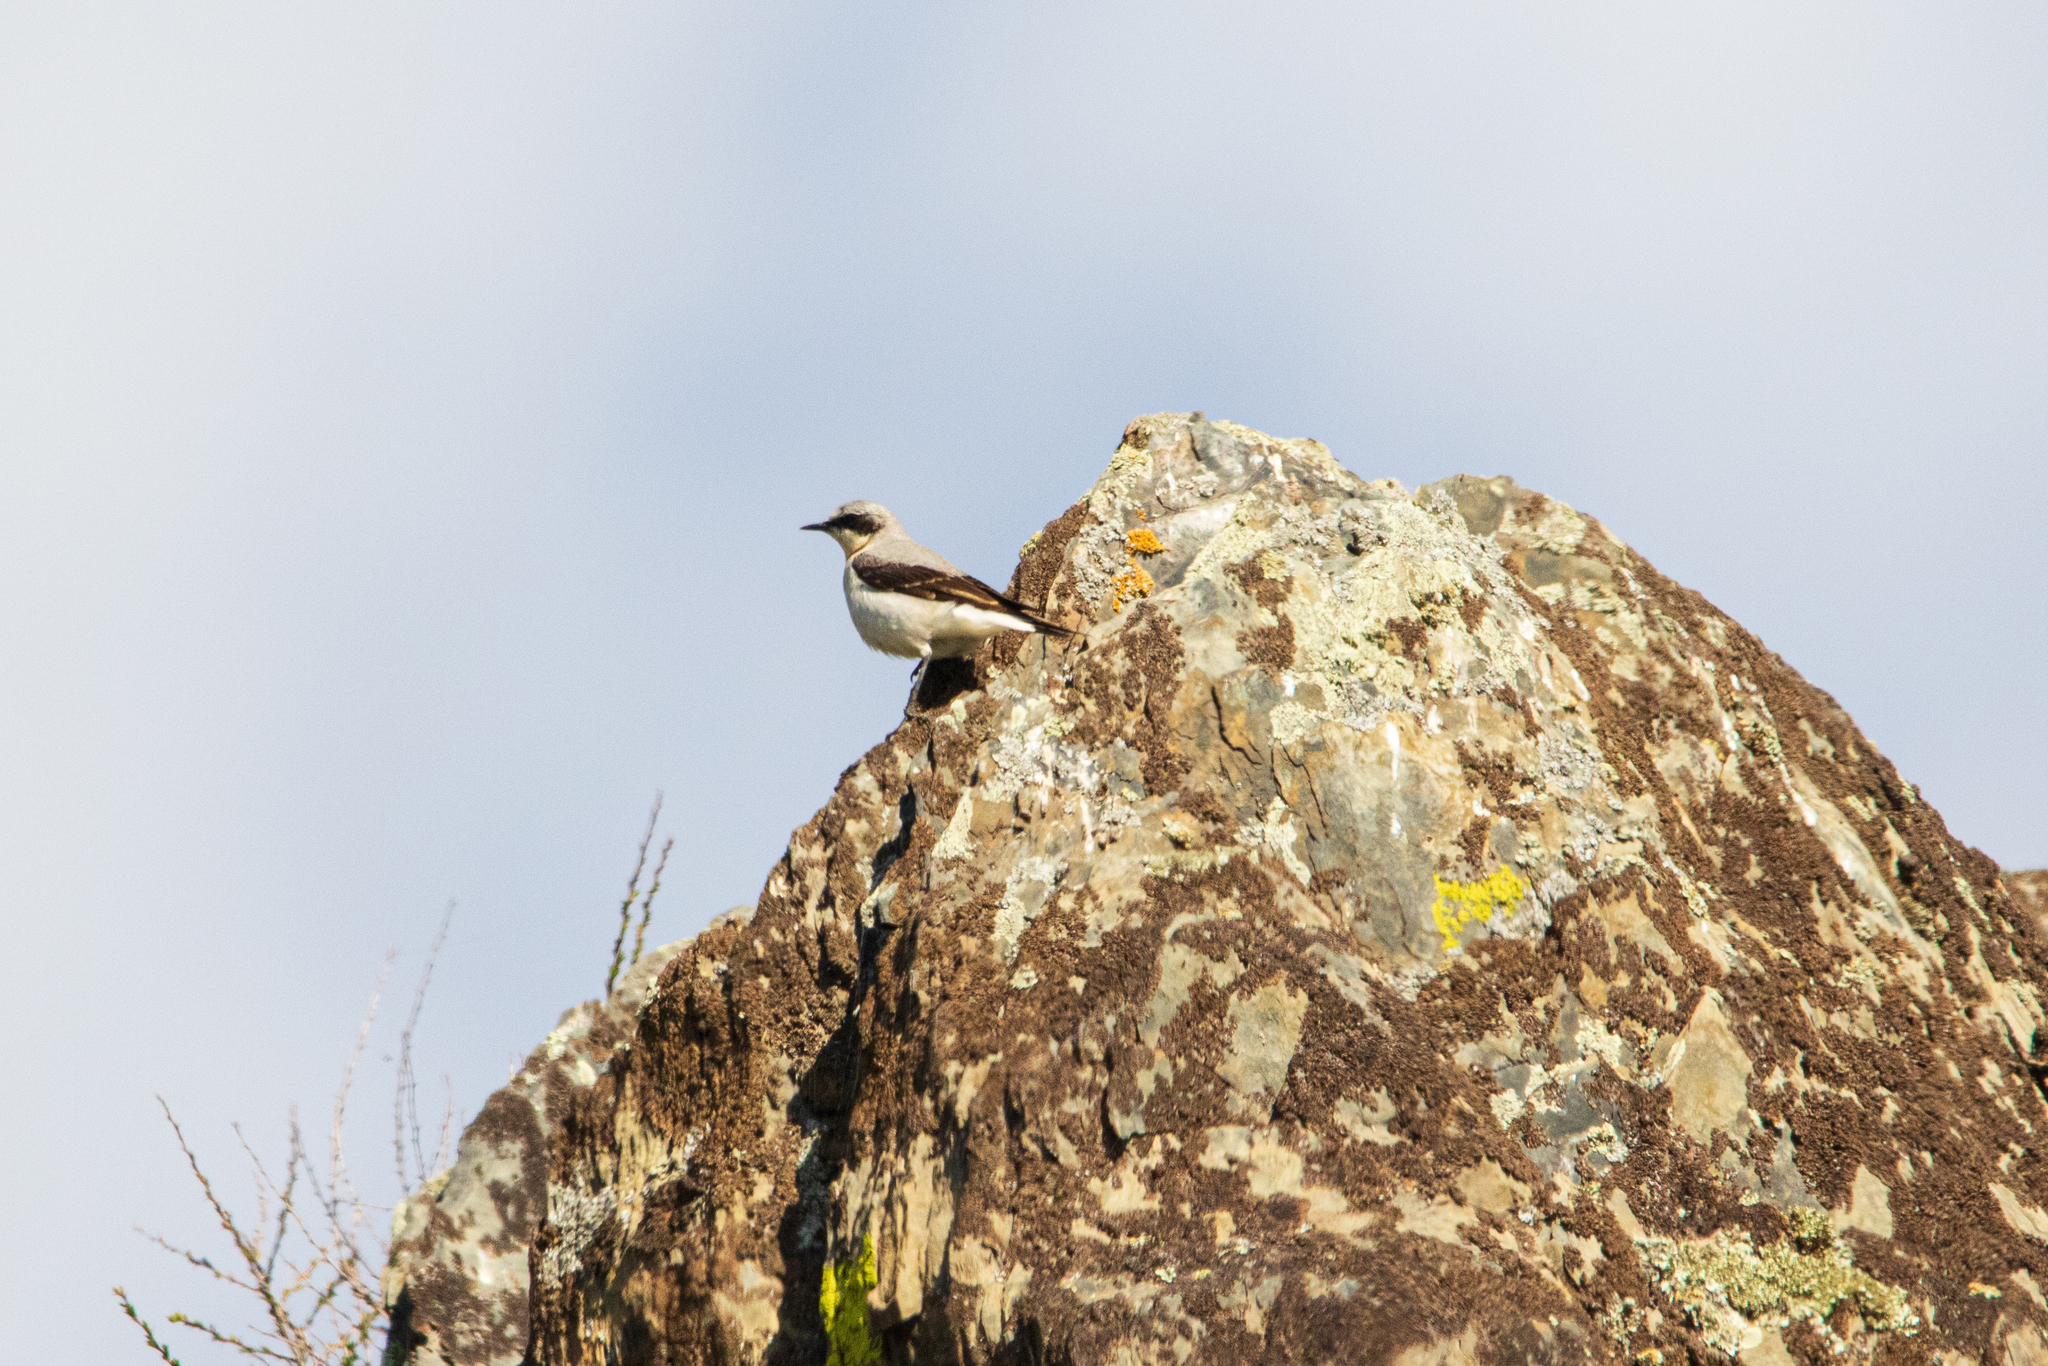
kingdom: Animalia
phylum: Chordata
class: Aves
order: Passeriformes
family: Muscicapidae
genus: Oenanthe
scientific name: Oenanthe oenanthe
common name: Northern wheatear
